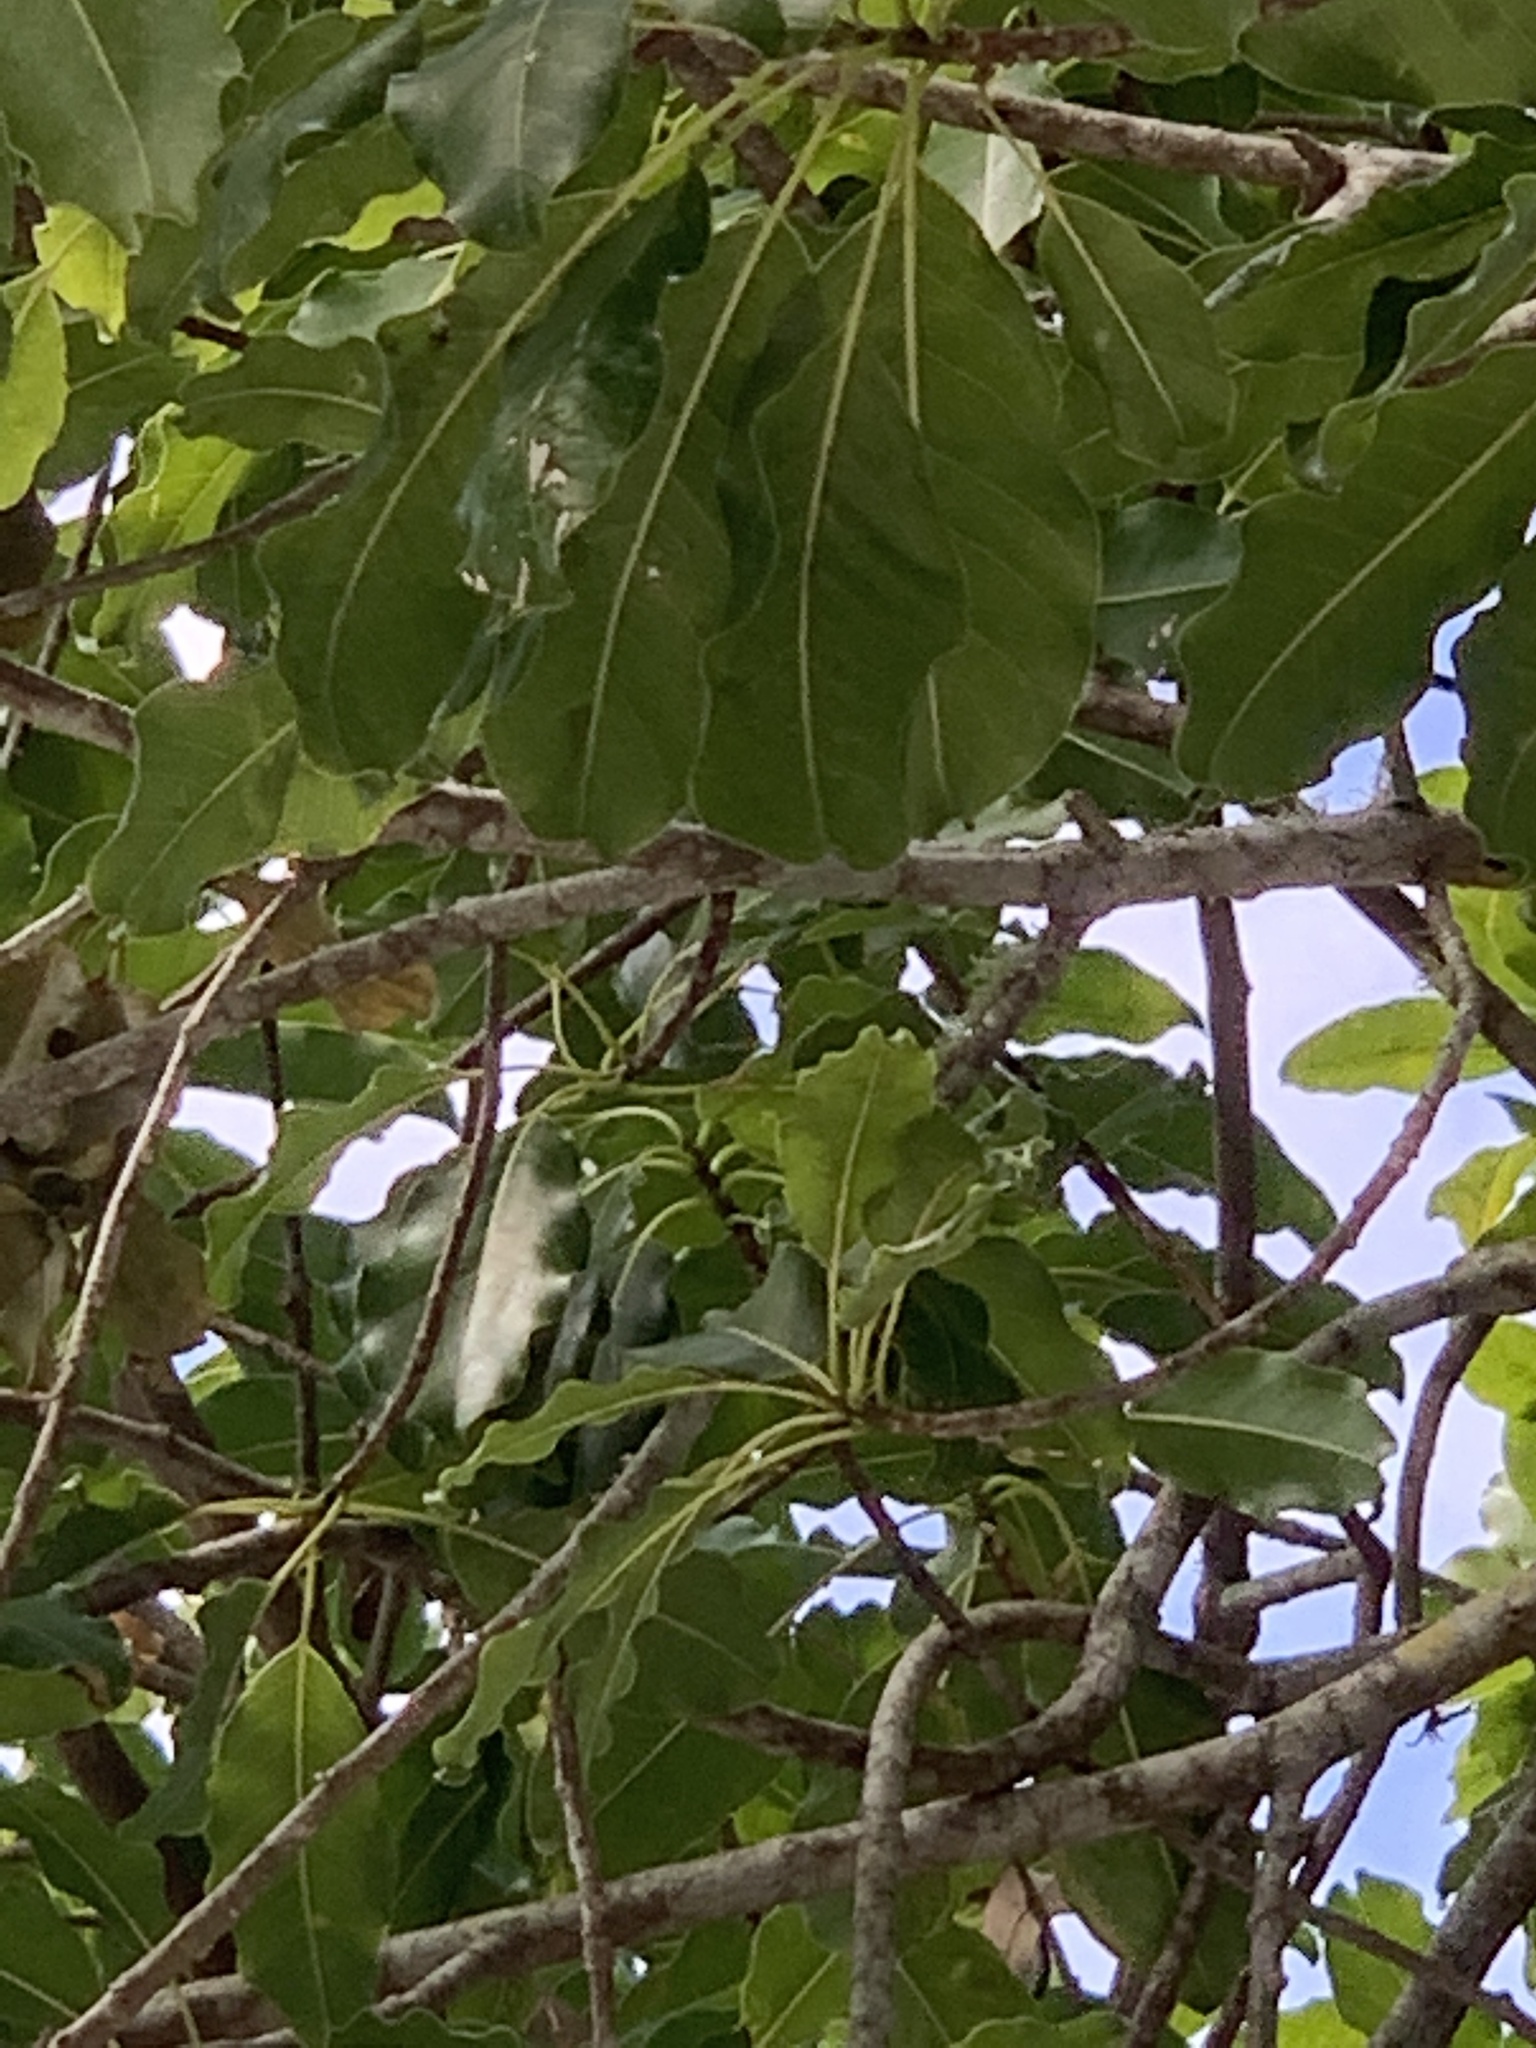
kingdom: Plantae
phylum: Tracheophyta
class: Magnoliopsida
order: Ericales
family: Sapotaceae
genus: Sideroxylon
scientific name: Sideroxylon foetidissimum
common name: Barbados-mastic
